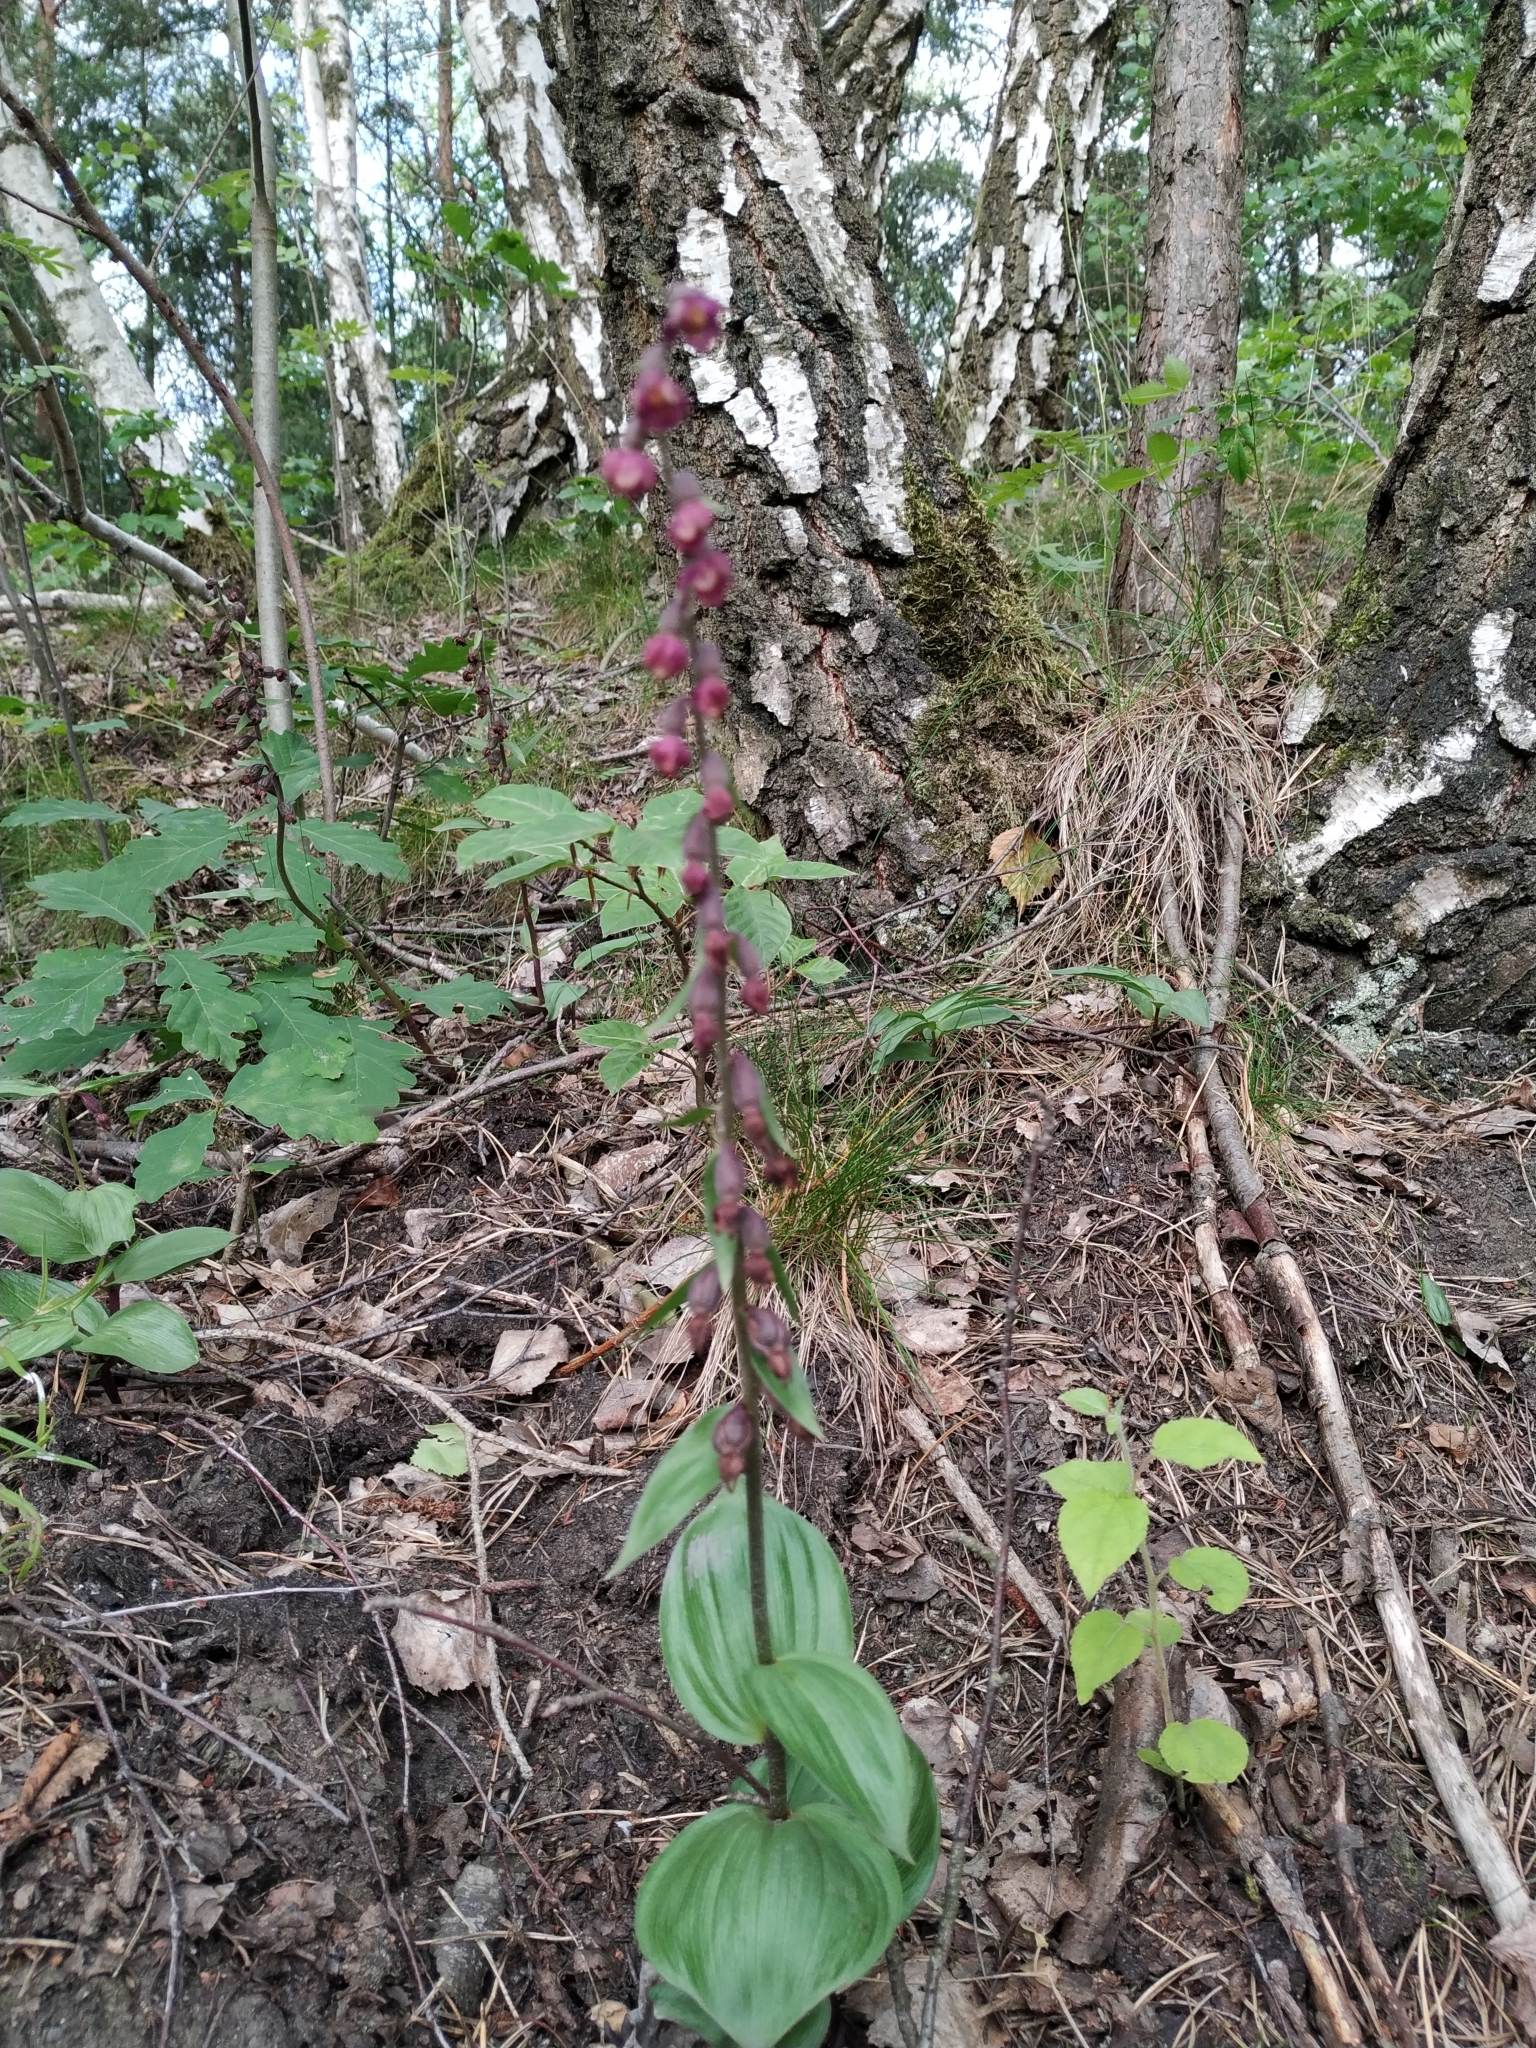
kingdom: Plantae
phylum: Tracheophyta
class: Liliopsida
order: Asparagales
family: Orchidaceae
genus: Epipactis
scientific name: Epipactis atrorubens
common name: Dark-red helleborine
